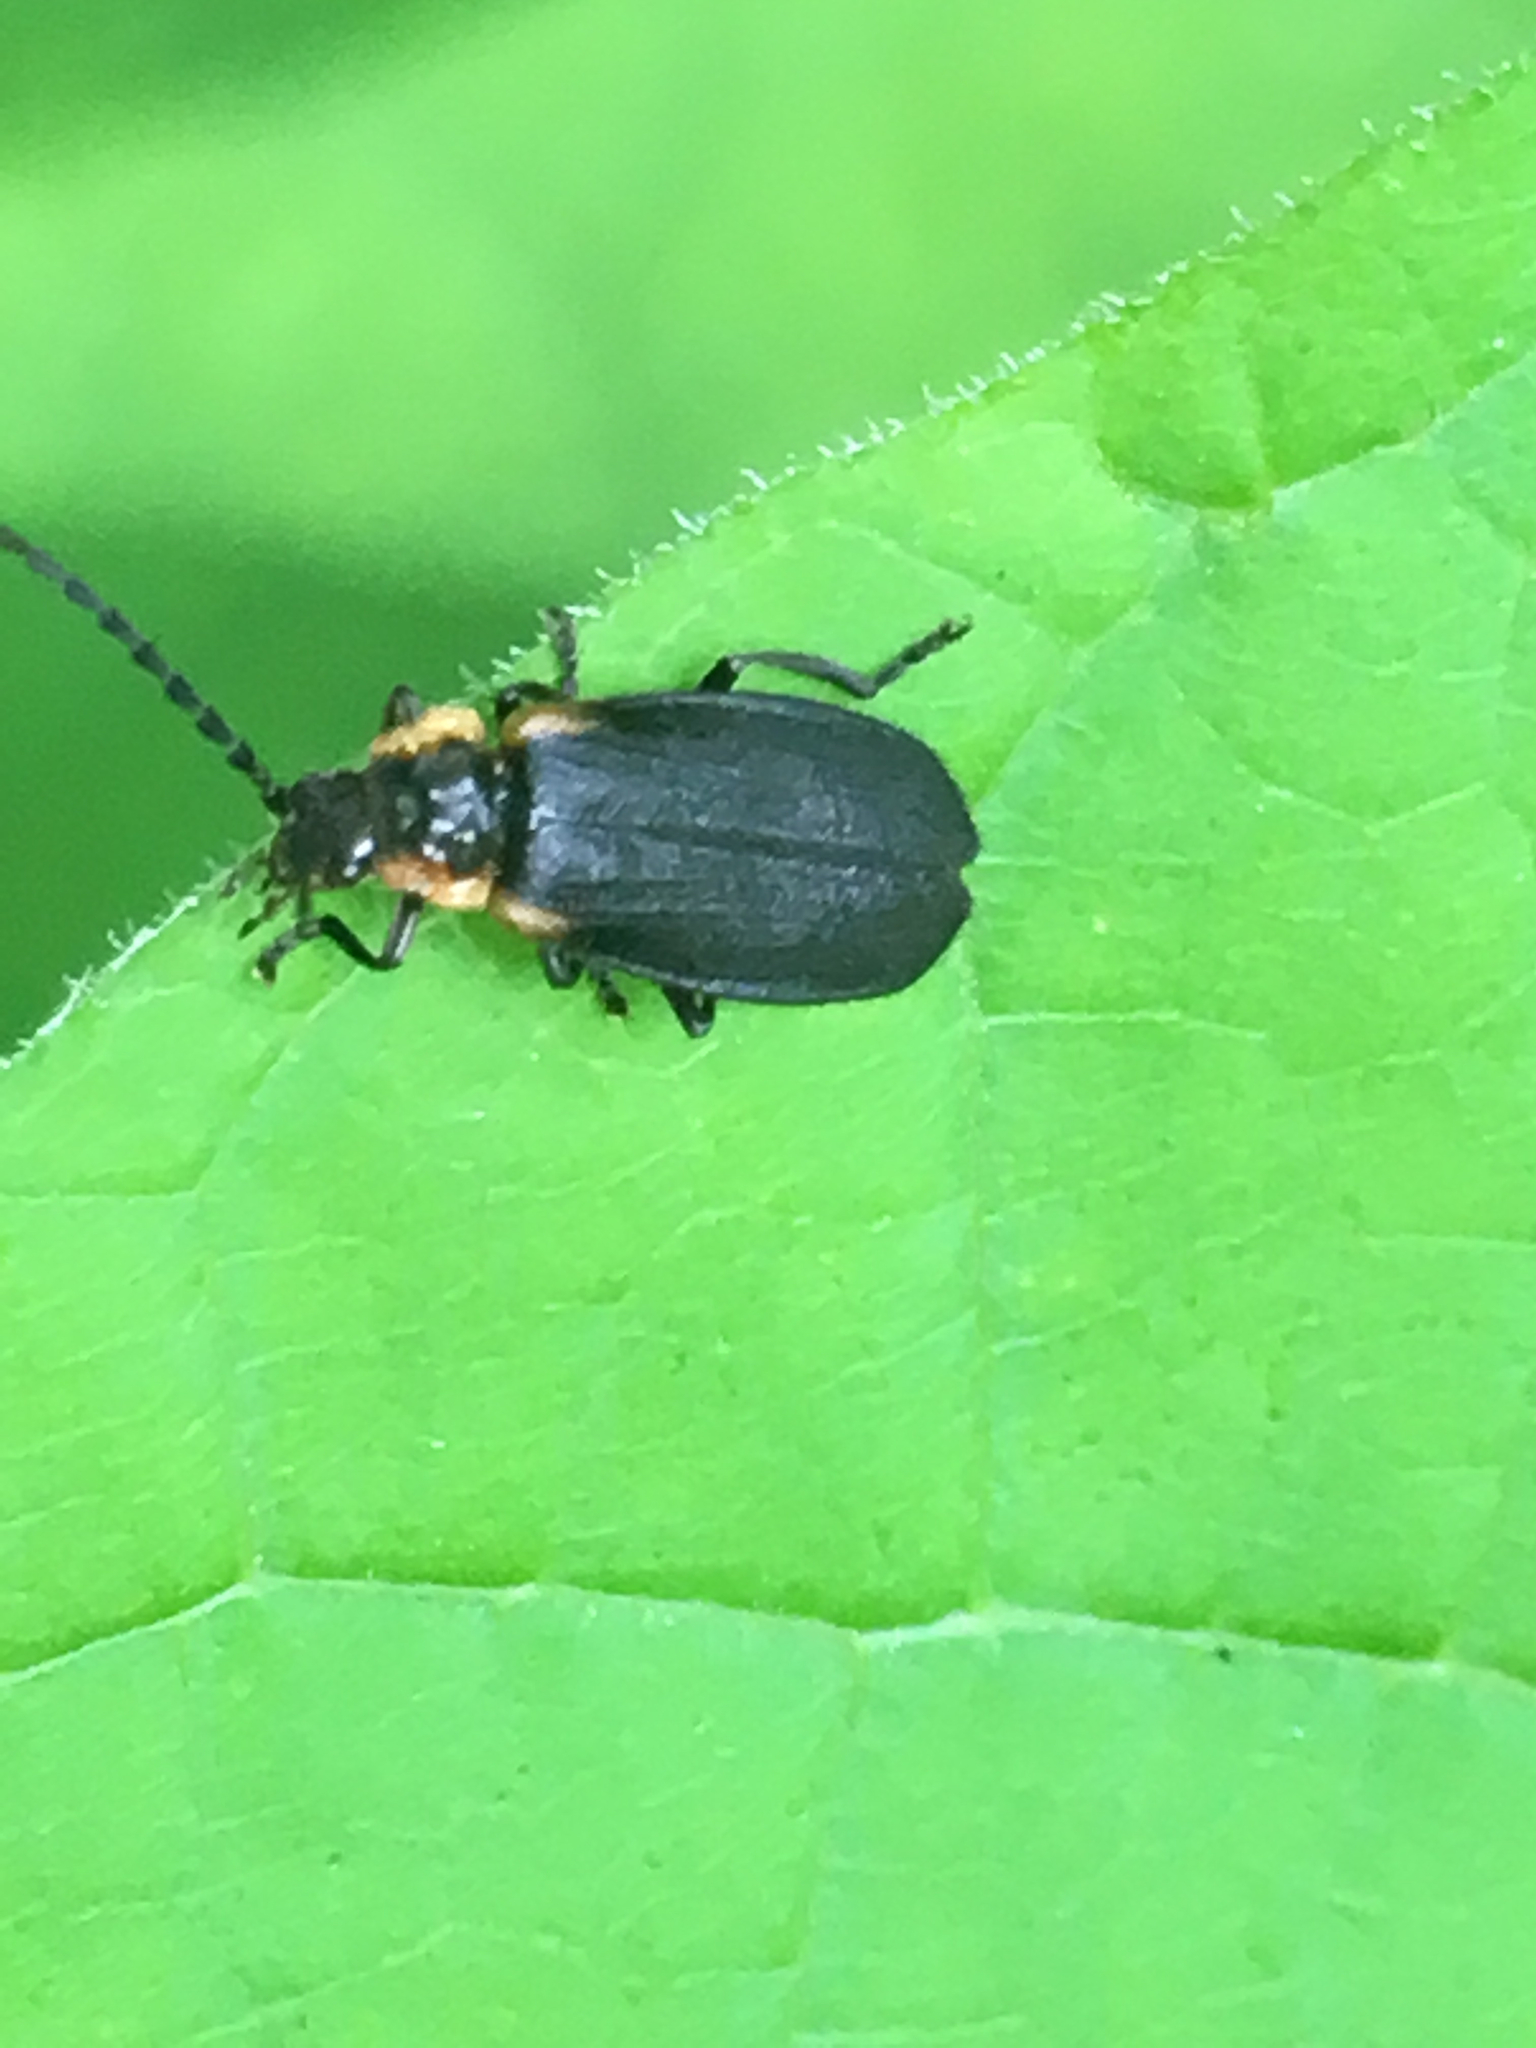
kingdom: Animalia
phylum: Arthropoda
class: Insecta
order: Coleoptera
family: Cantharidae
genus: Polemius
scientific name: Polemius laticornis
